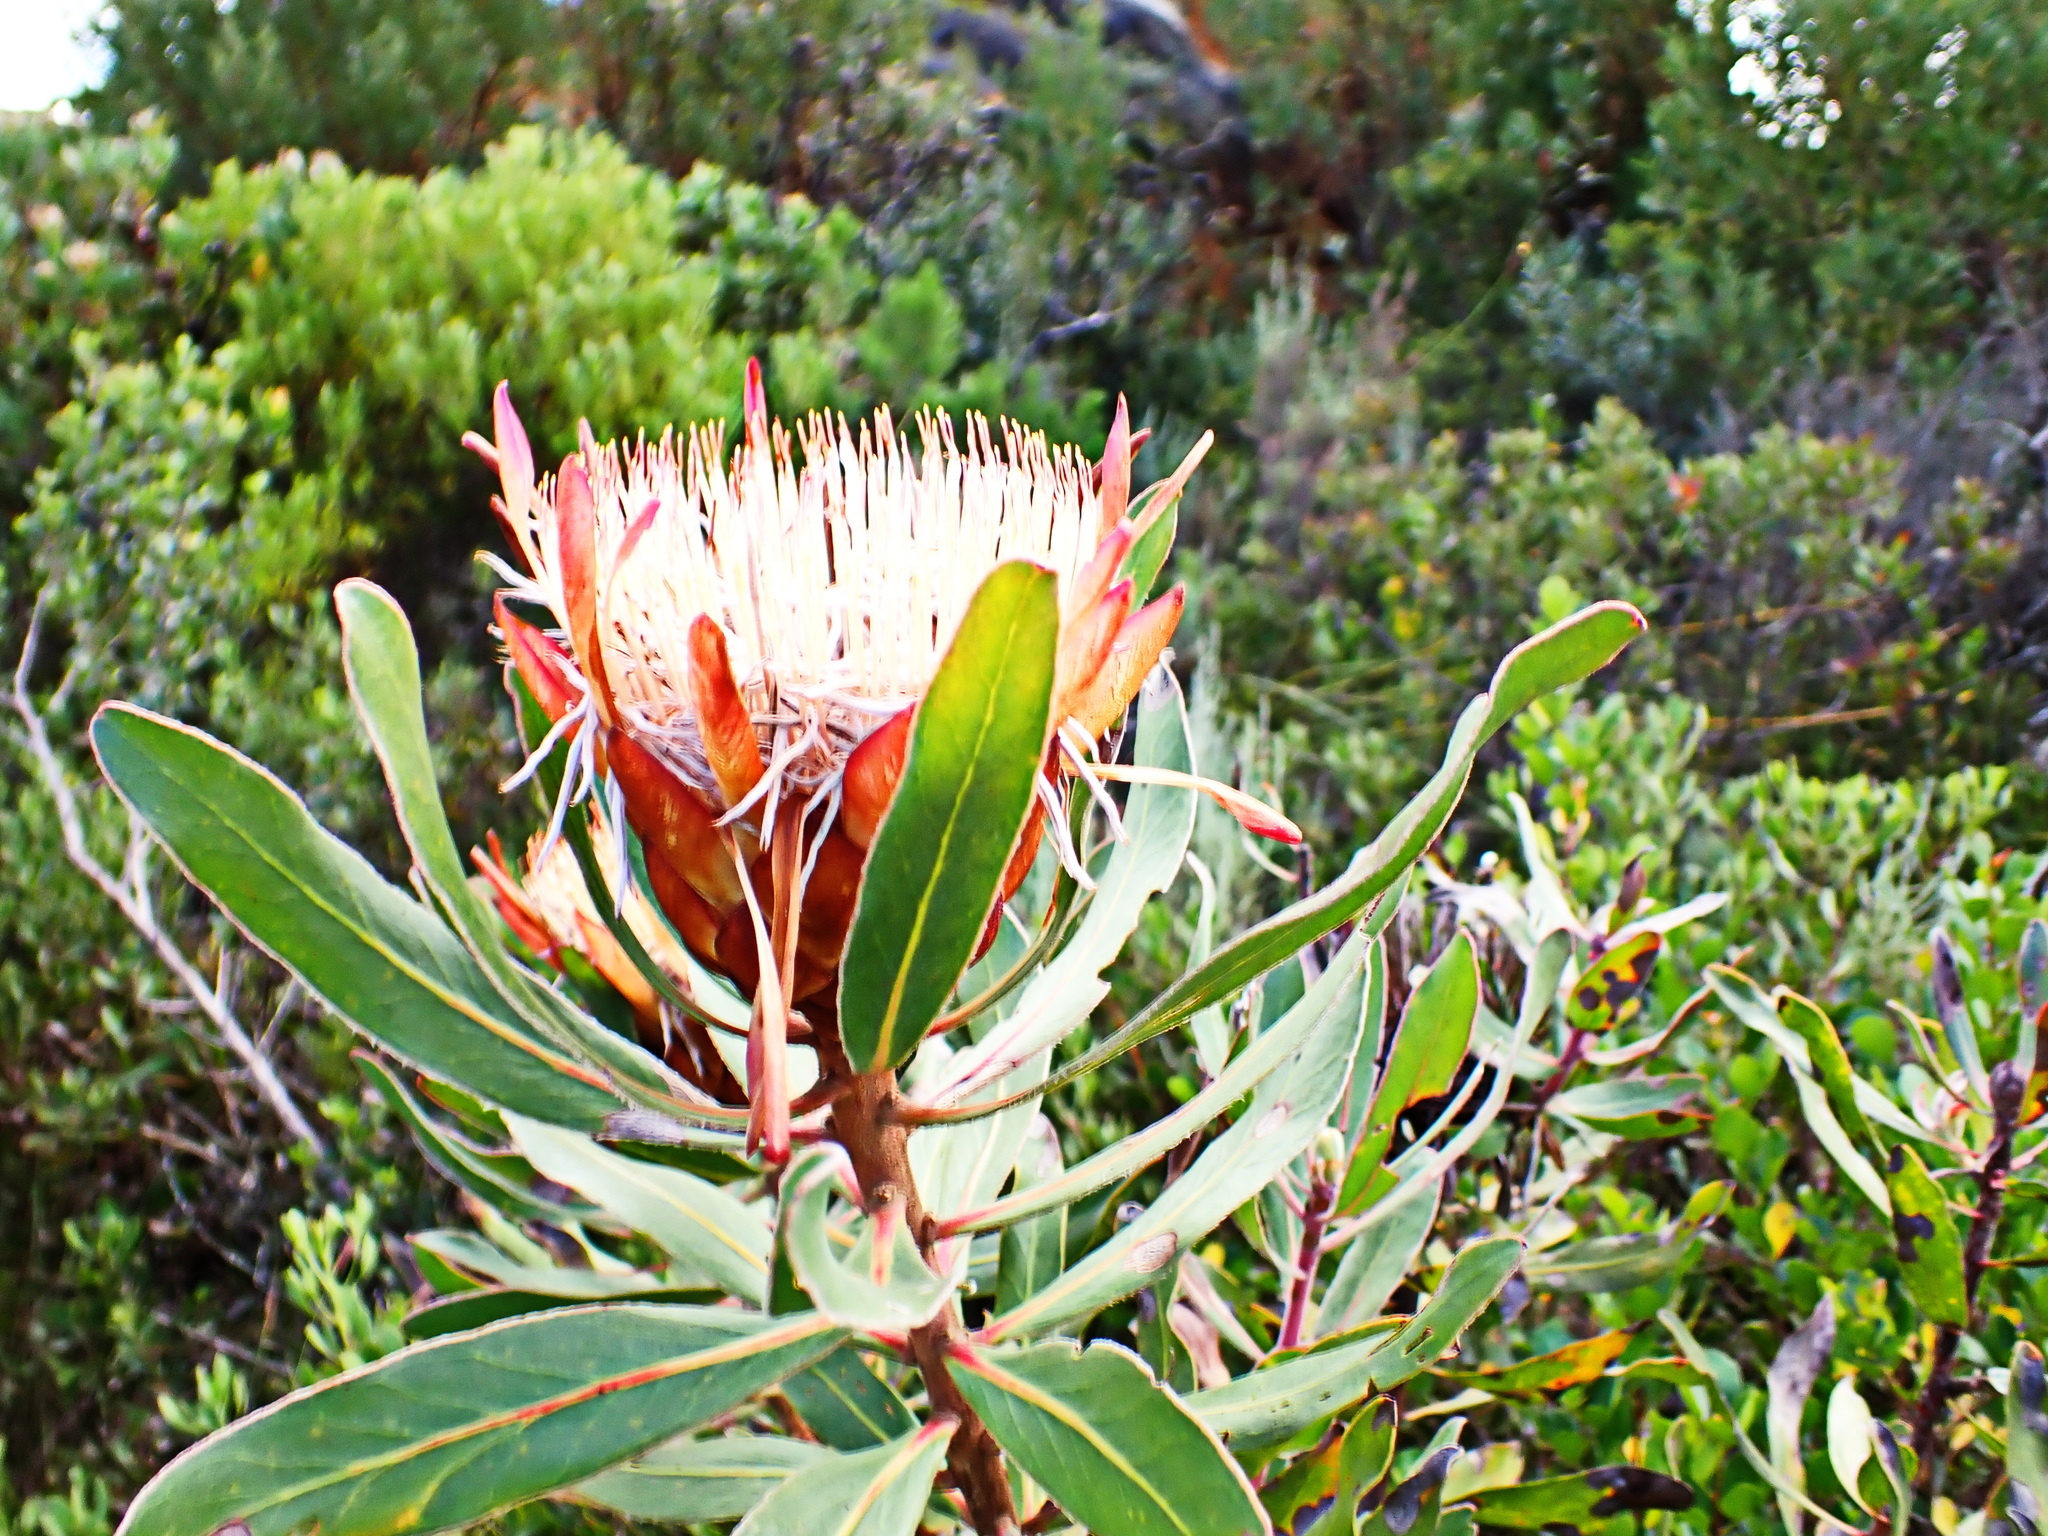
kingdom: Plantae
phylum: Tracheophyta
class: Magnoliopsida
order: Proteales
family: Proteaceae
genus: Protea
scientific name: Protea susannae
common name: Foetid-leaf sugarbush
